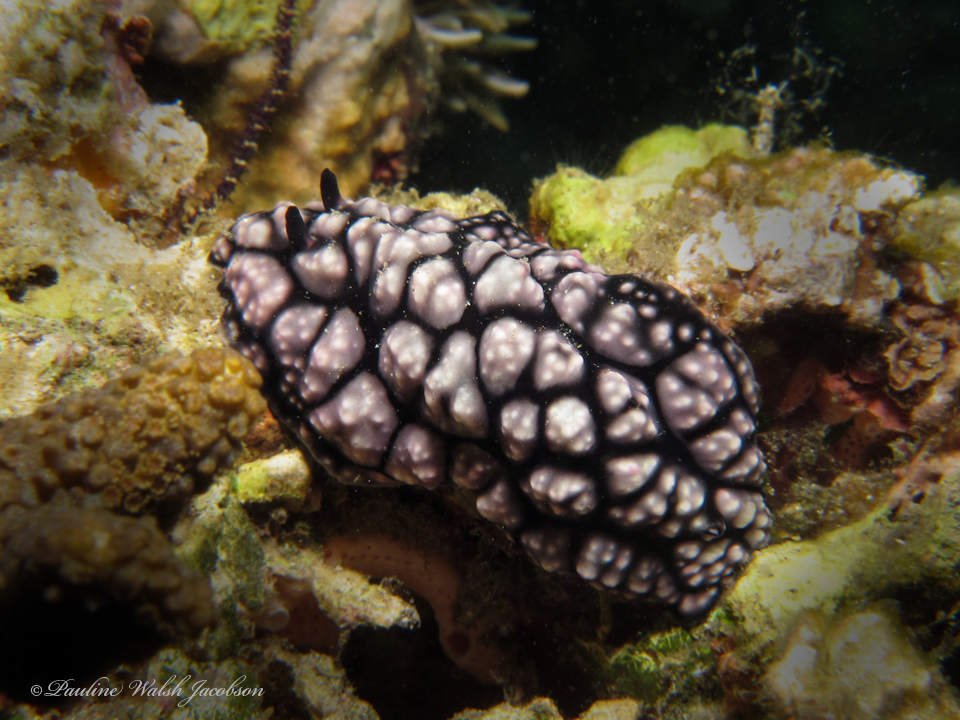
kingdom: Animalia
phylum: Mollusca
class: Gastropoda
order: Nudibranchia
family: Phyllidiidae
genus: Phyllidiella
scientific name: Phyllidiella pustulosa
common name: Pustular phyllidia
